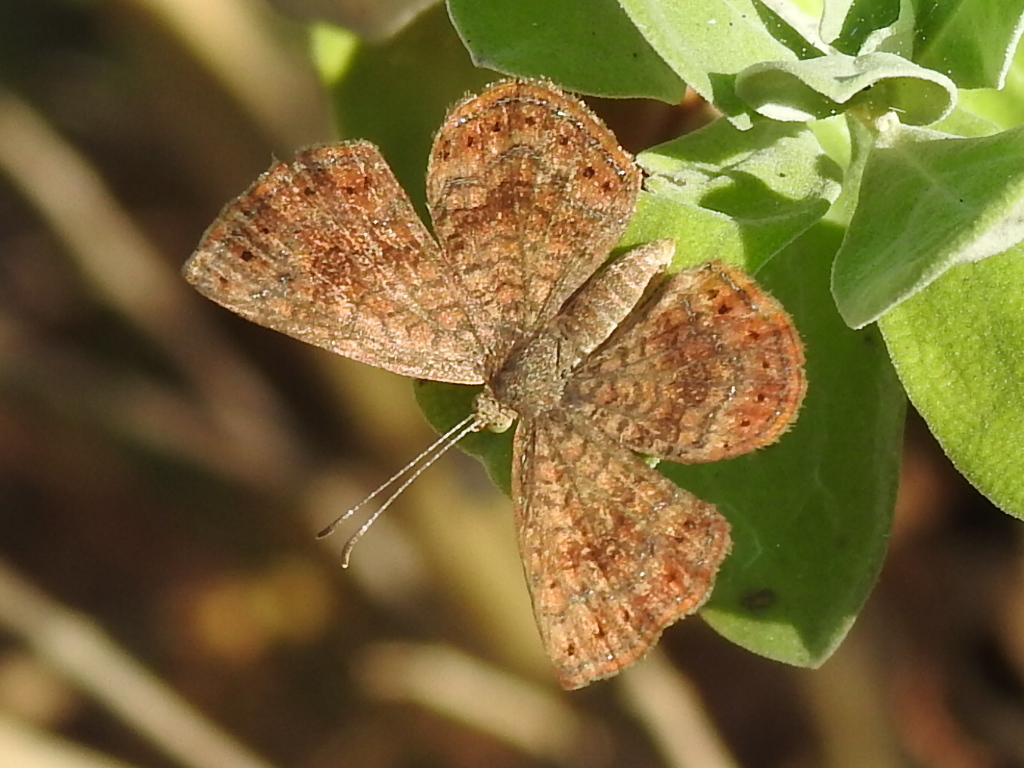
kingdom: Animalia
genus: Calephelis
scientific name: Calephelis perditalis
